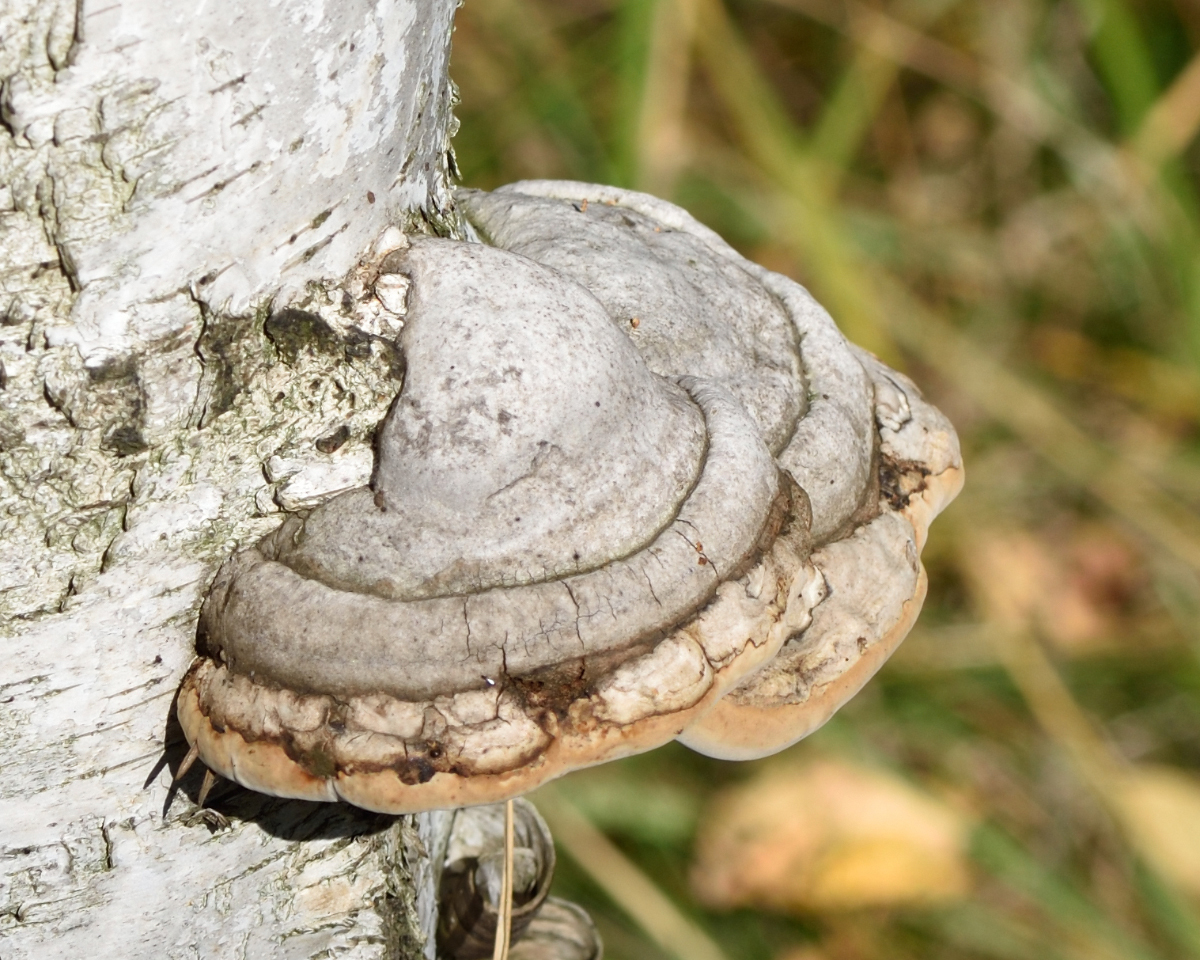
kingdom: Fungi
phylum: Basidiomycota
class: Agaricomycetes
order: Polyporales
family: Polyporaceae
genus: Fomes
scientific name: Fomes fomentarius
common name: Hoof fungus
